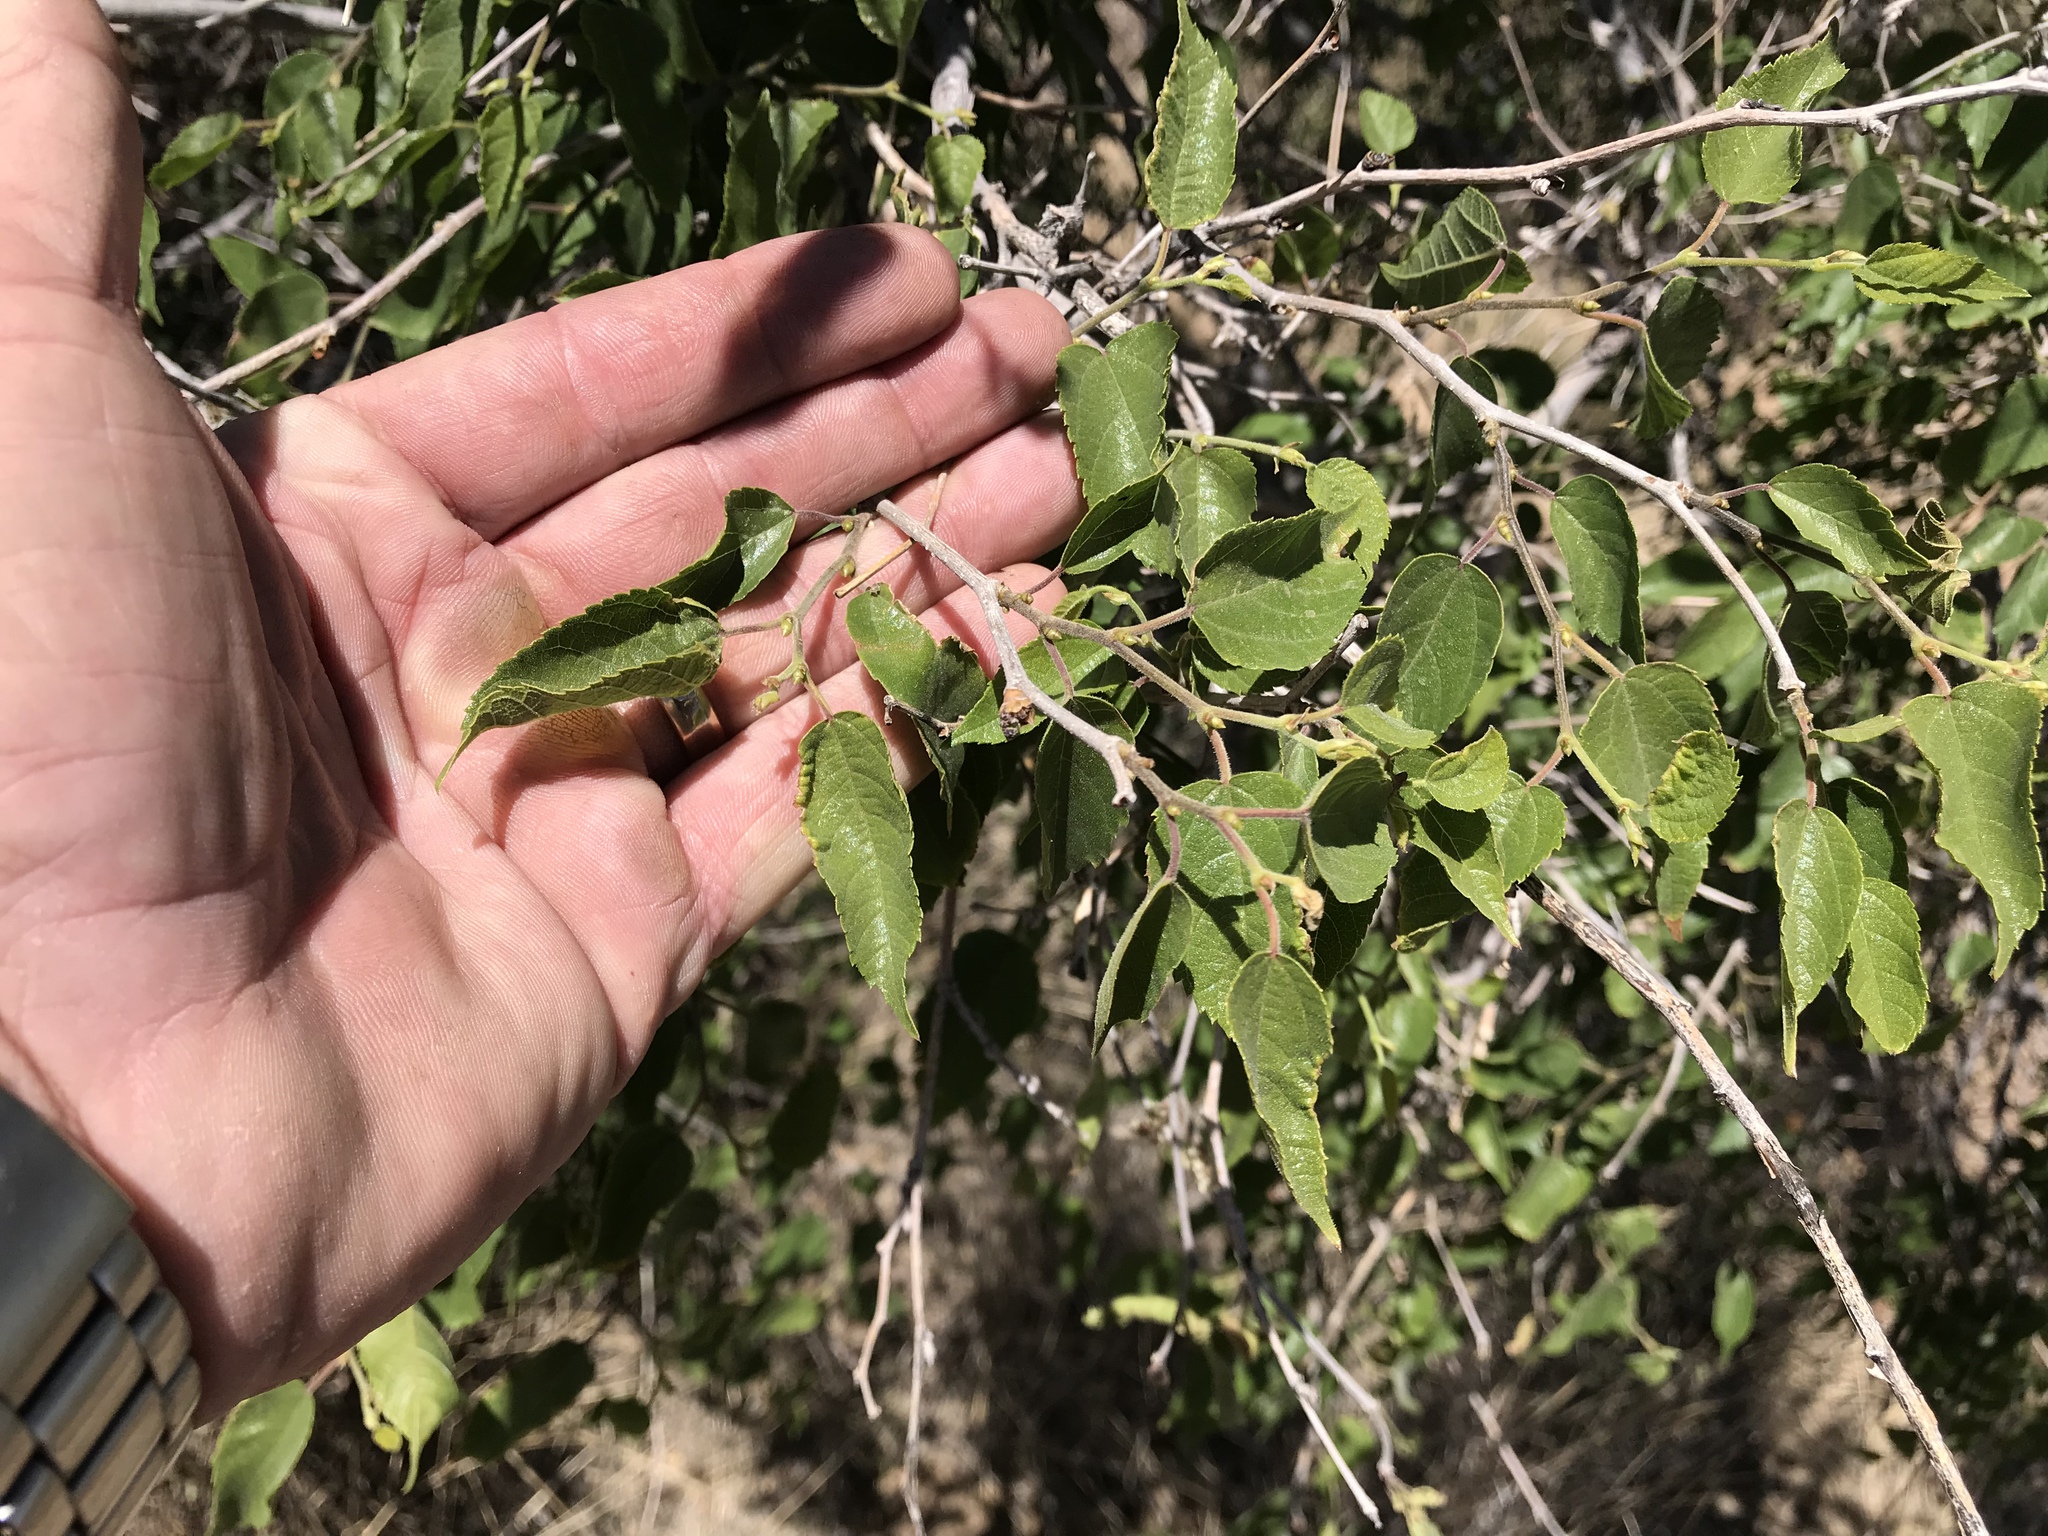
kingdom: Plantae
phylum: Tracheophyta
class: Magnoliopsida
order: Rosales
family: Cannabaceae
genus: Celtis
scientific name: Celtis reticulata
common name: Netleaf hackberry
